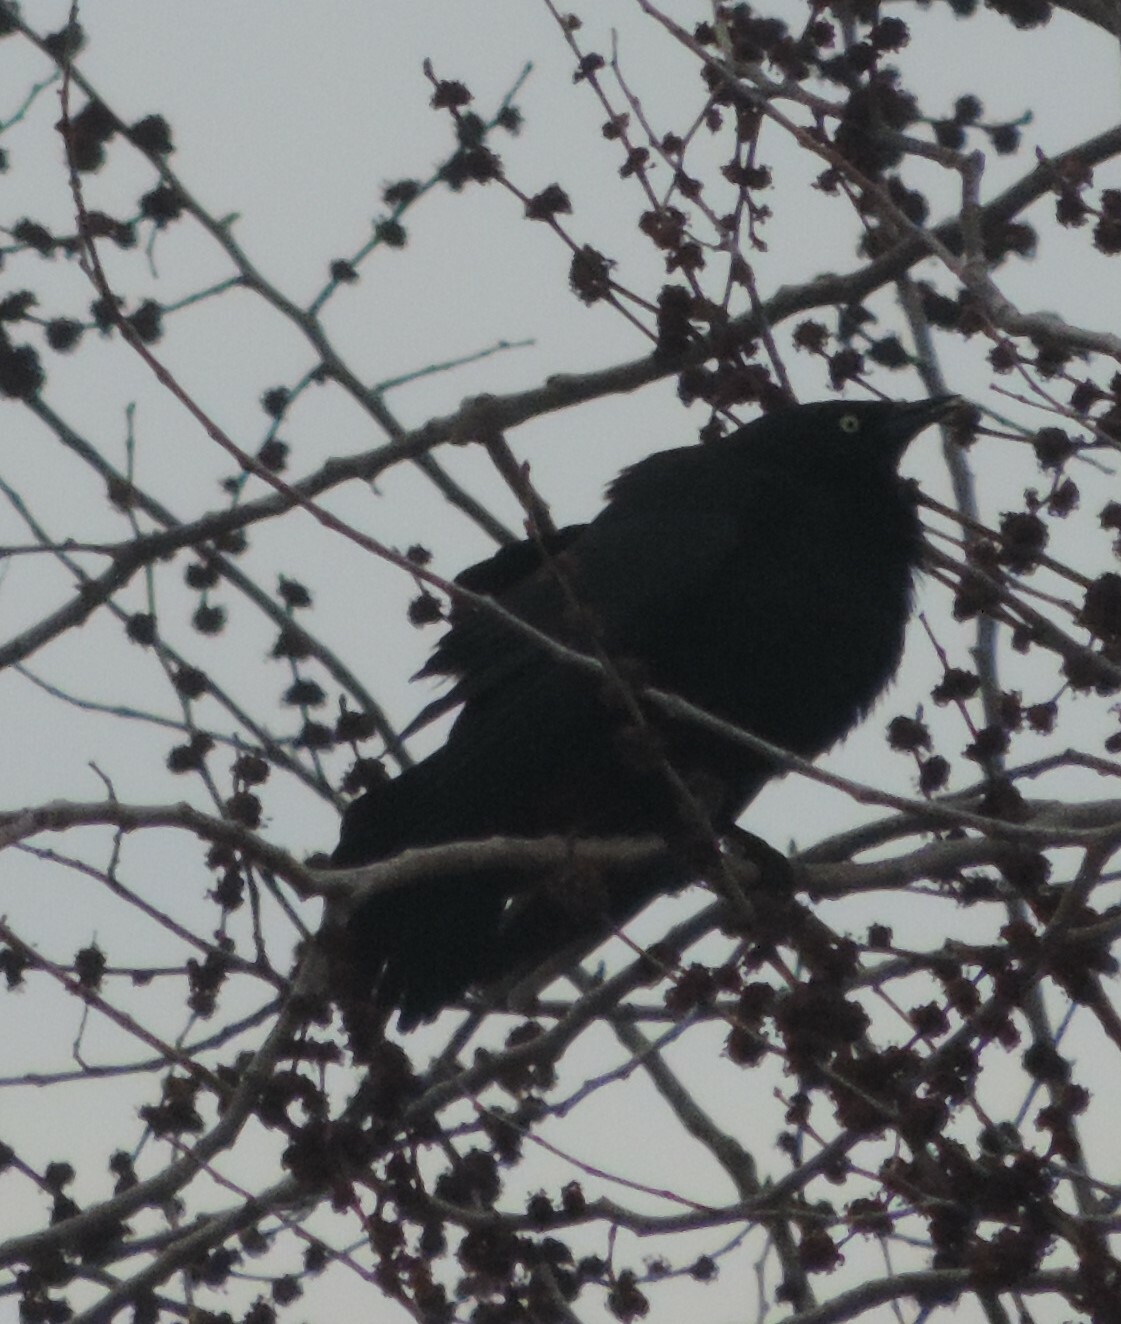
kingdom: Animalia
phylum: Chordata
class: Aves
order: Passeriformes
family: Icteridae
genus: Euphagus
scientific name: Euphagus cyanocephalus
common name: Brewer's blackbird
